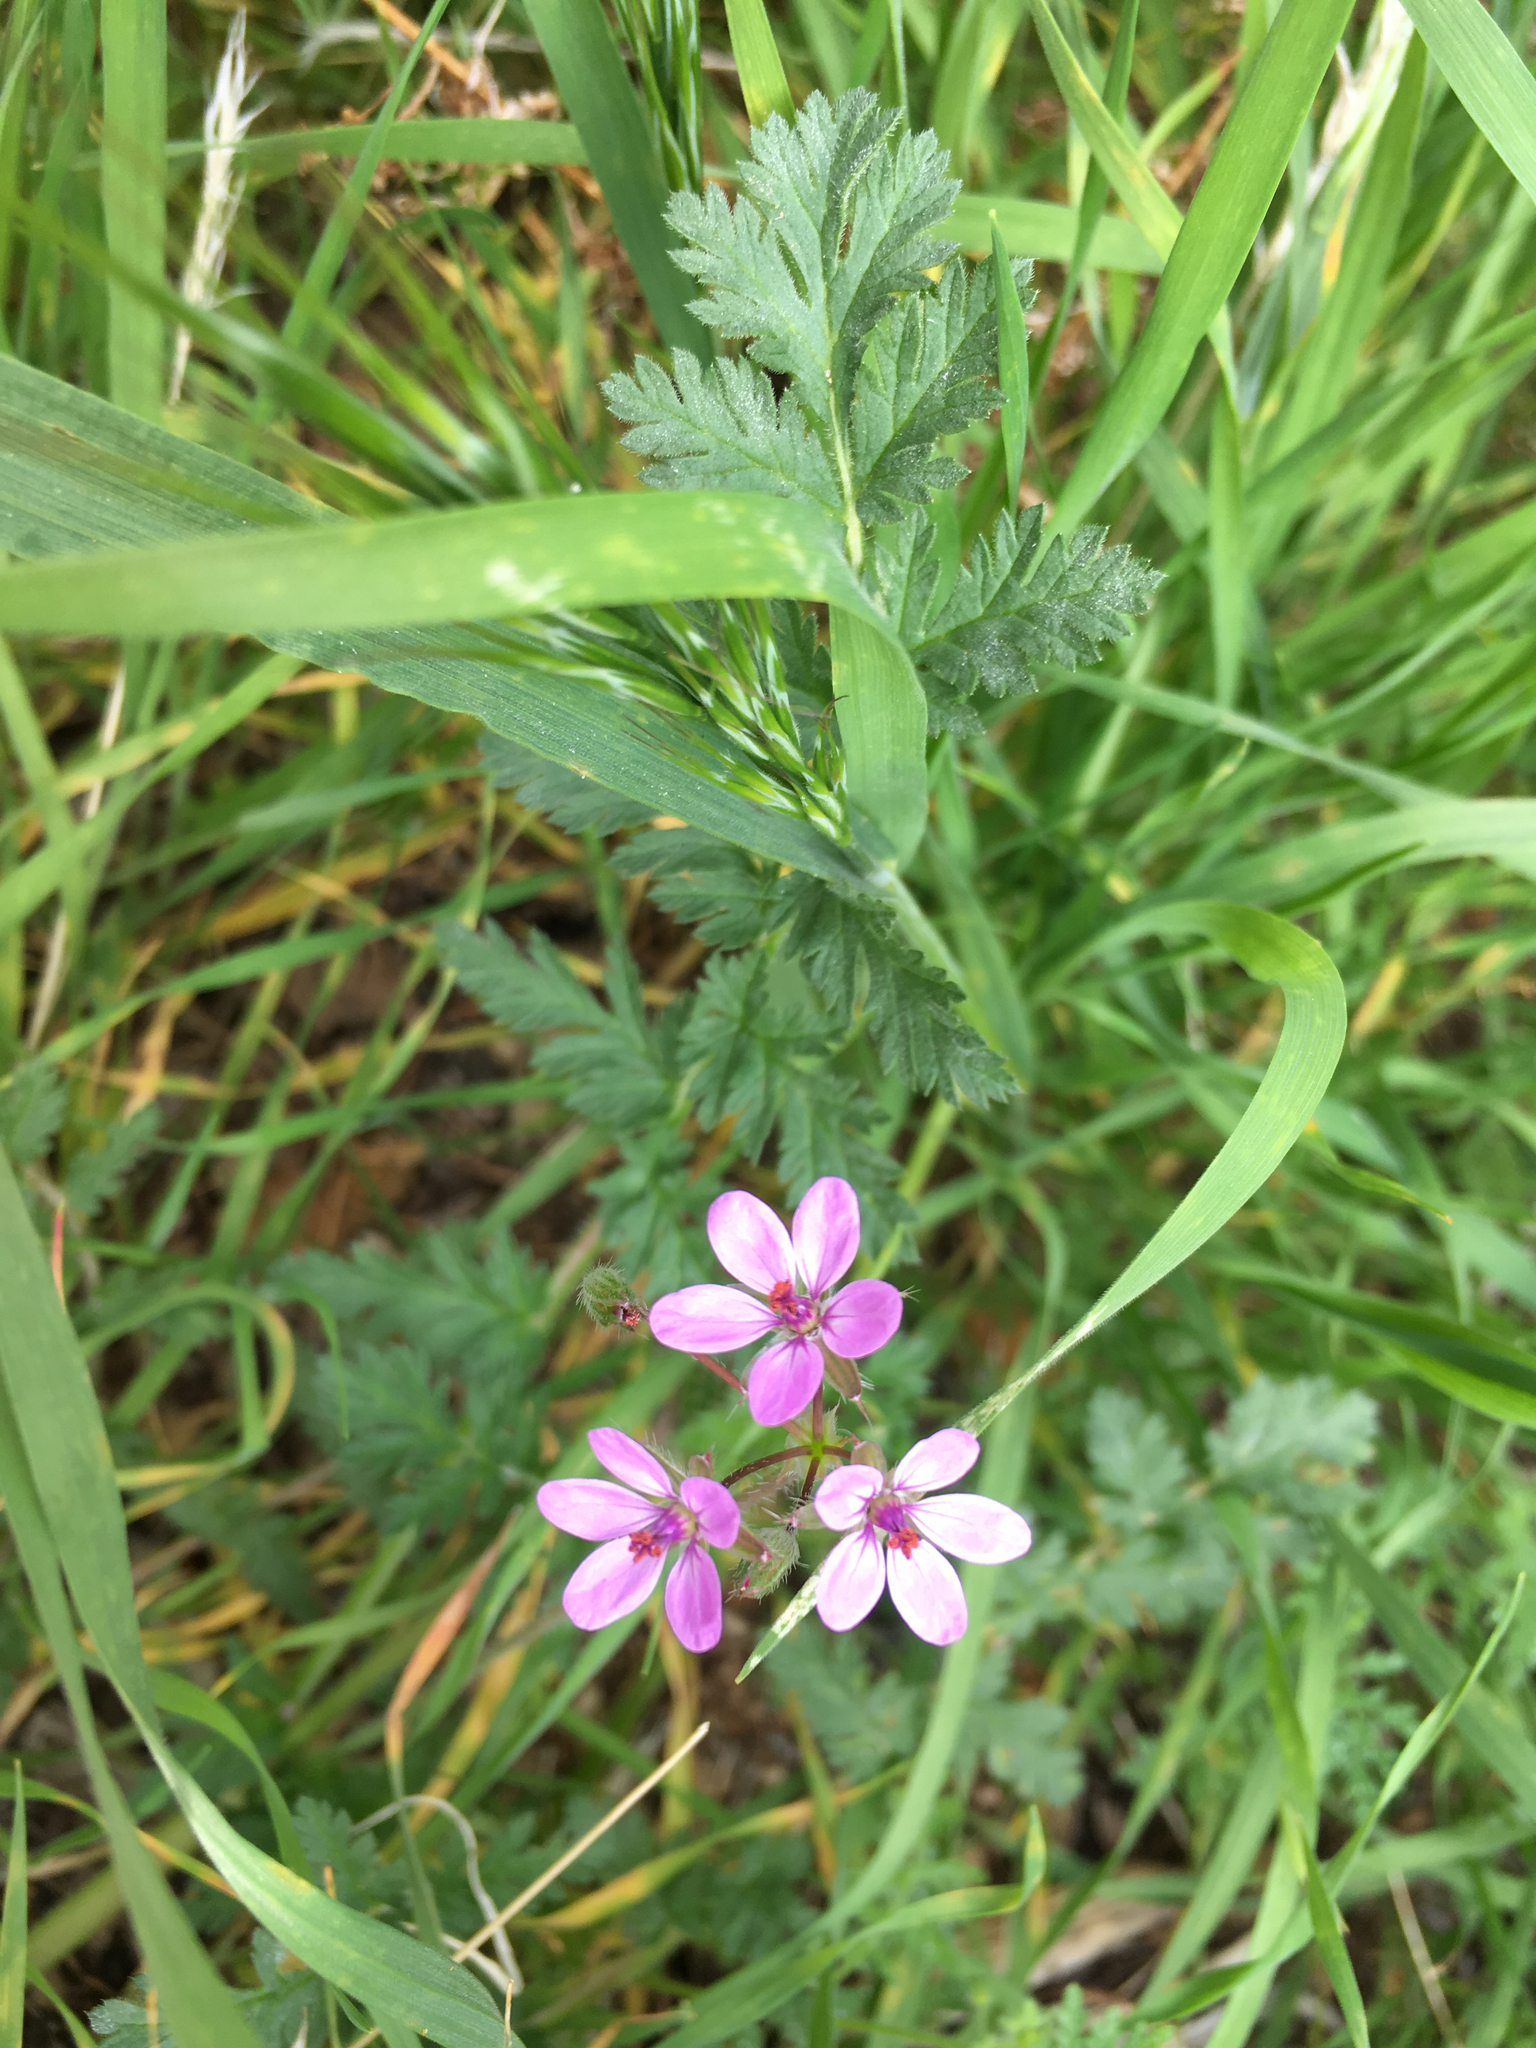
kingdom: Plantae
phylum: Tracheophyta
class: Magnoliopsida
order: Geraniales
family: Geraniaceae
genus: Erodium
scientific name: Erodium cicutarium
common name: Common stork's-bill
